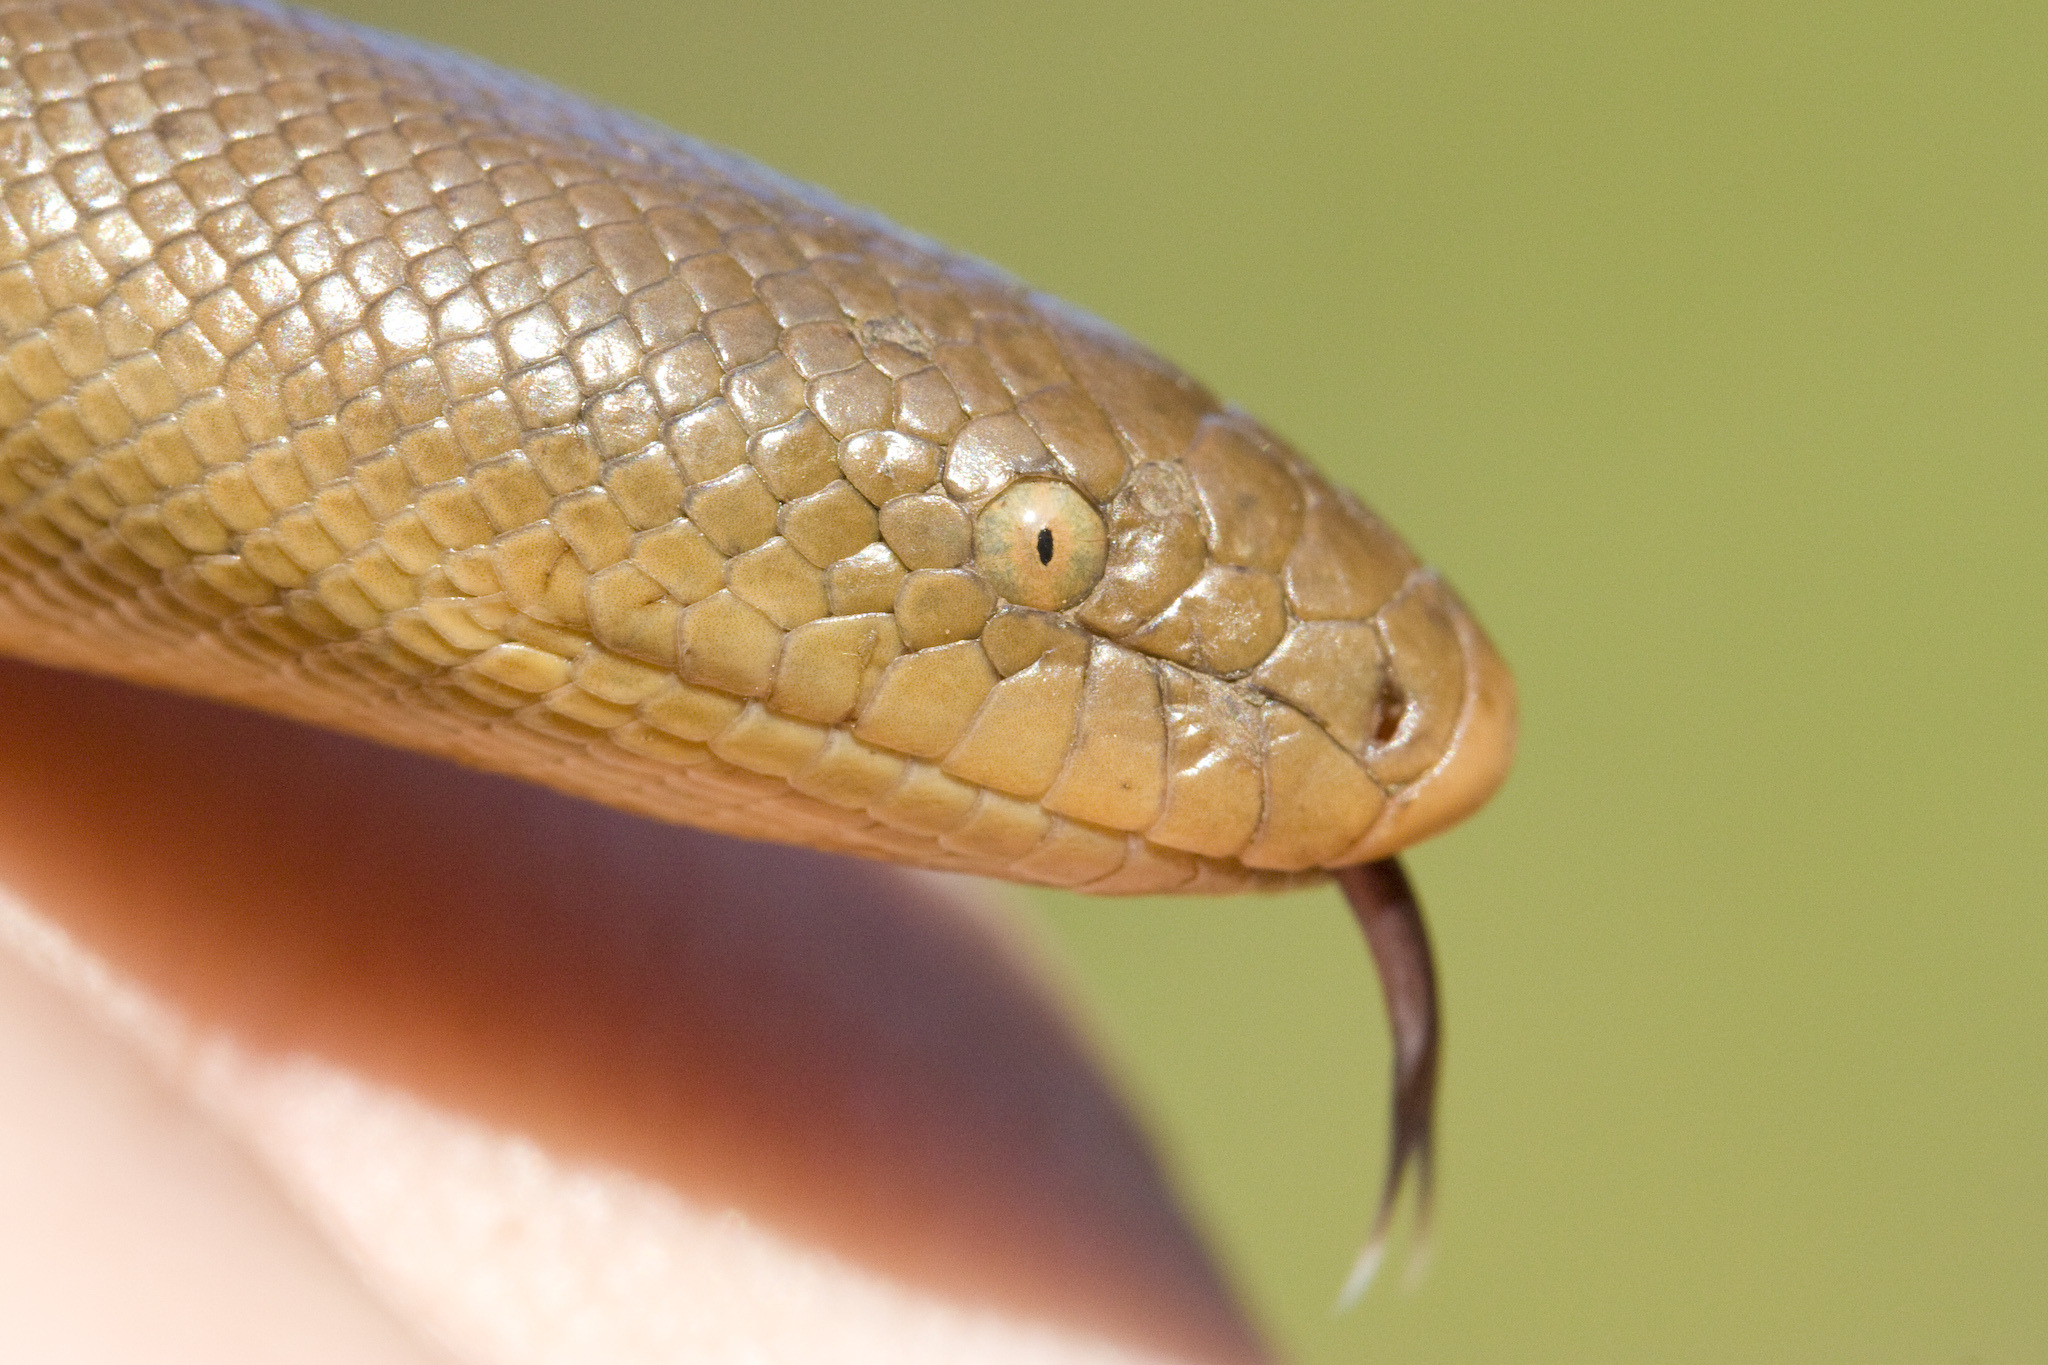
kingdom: Animalia
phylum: Chordata
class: Squamata
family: Boidae
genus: Charina
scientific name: Charina bottae
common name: Northern rubber boa
